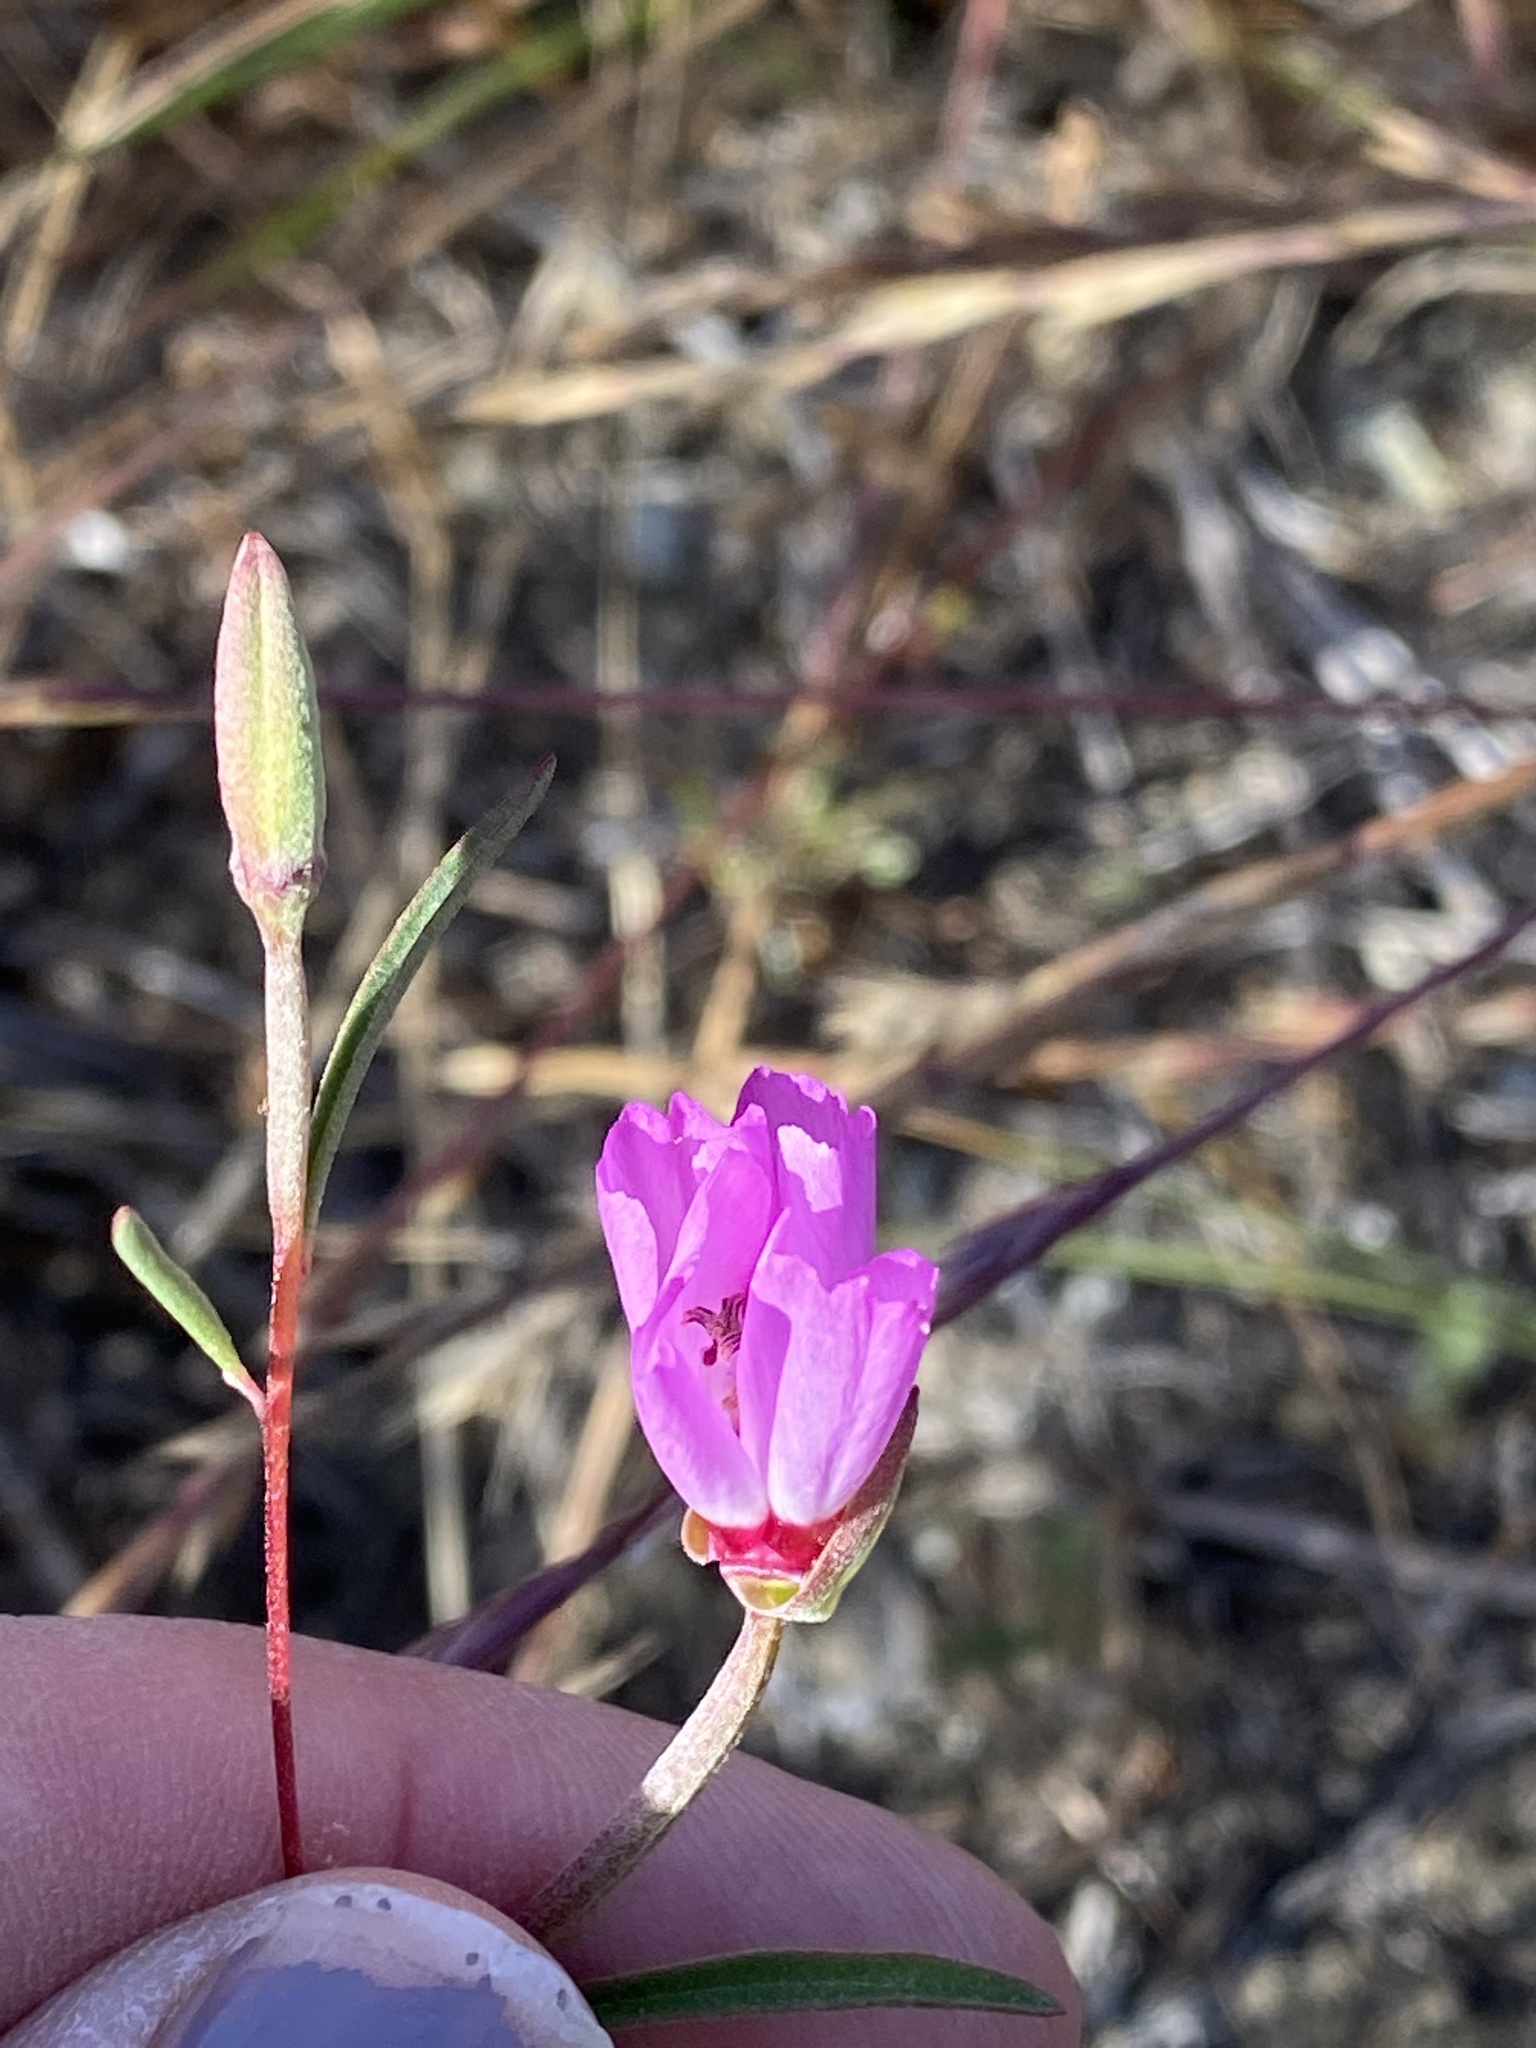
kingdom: Plantae
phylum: Tracheophyta
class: Magnoliopsida
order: Myrtales
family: Onagraceae
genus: Clarkia
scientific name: Clarkia franciscana
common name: Presidio clarkia
